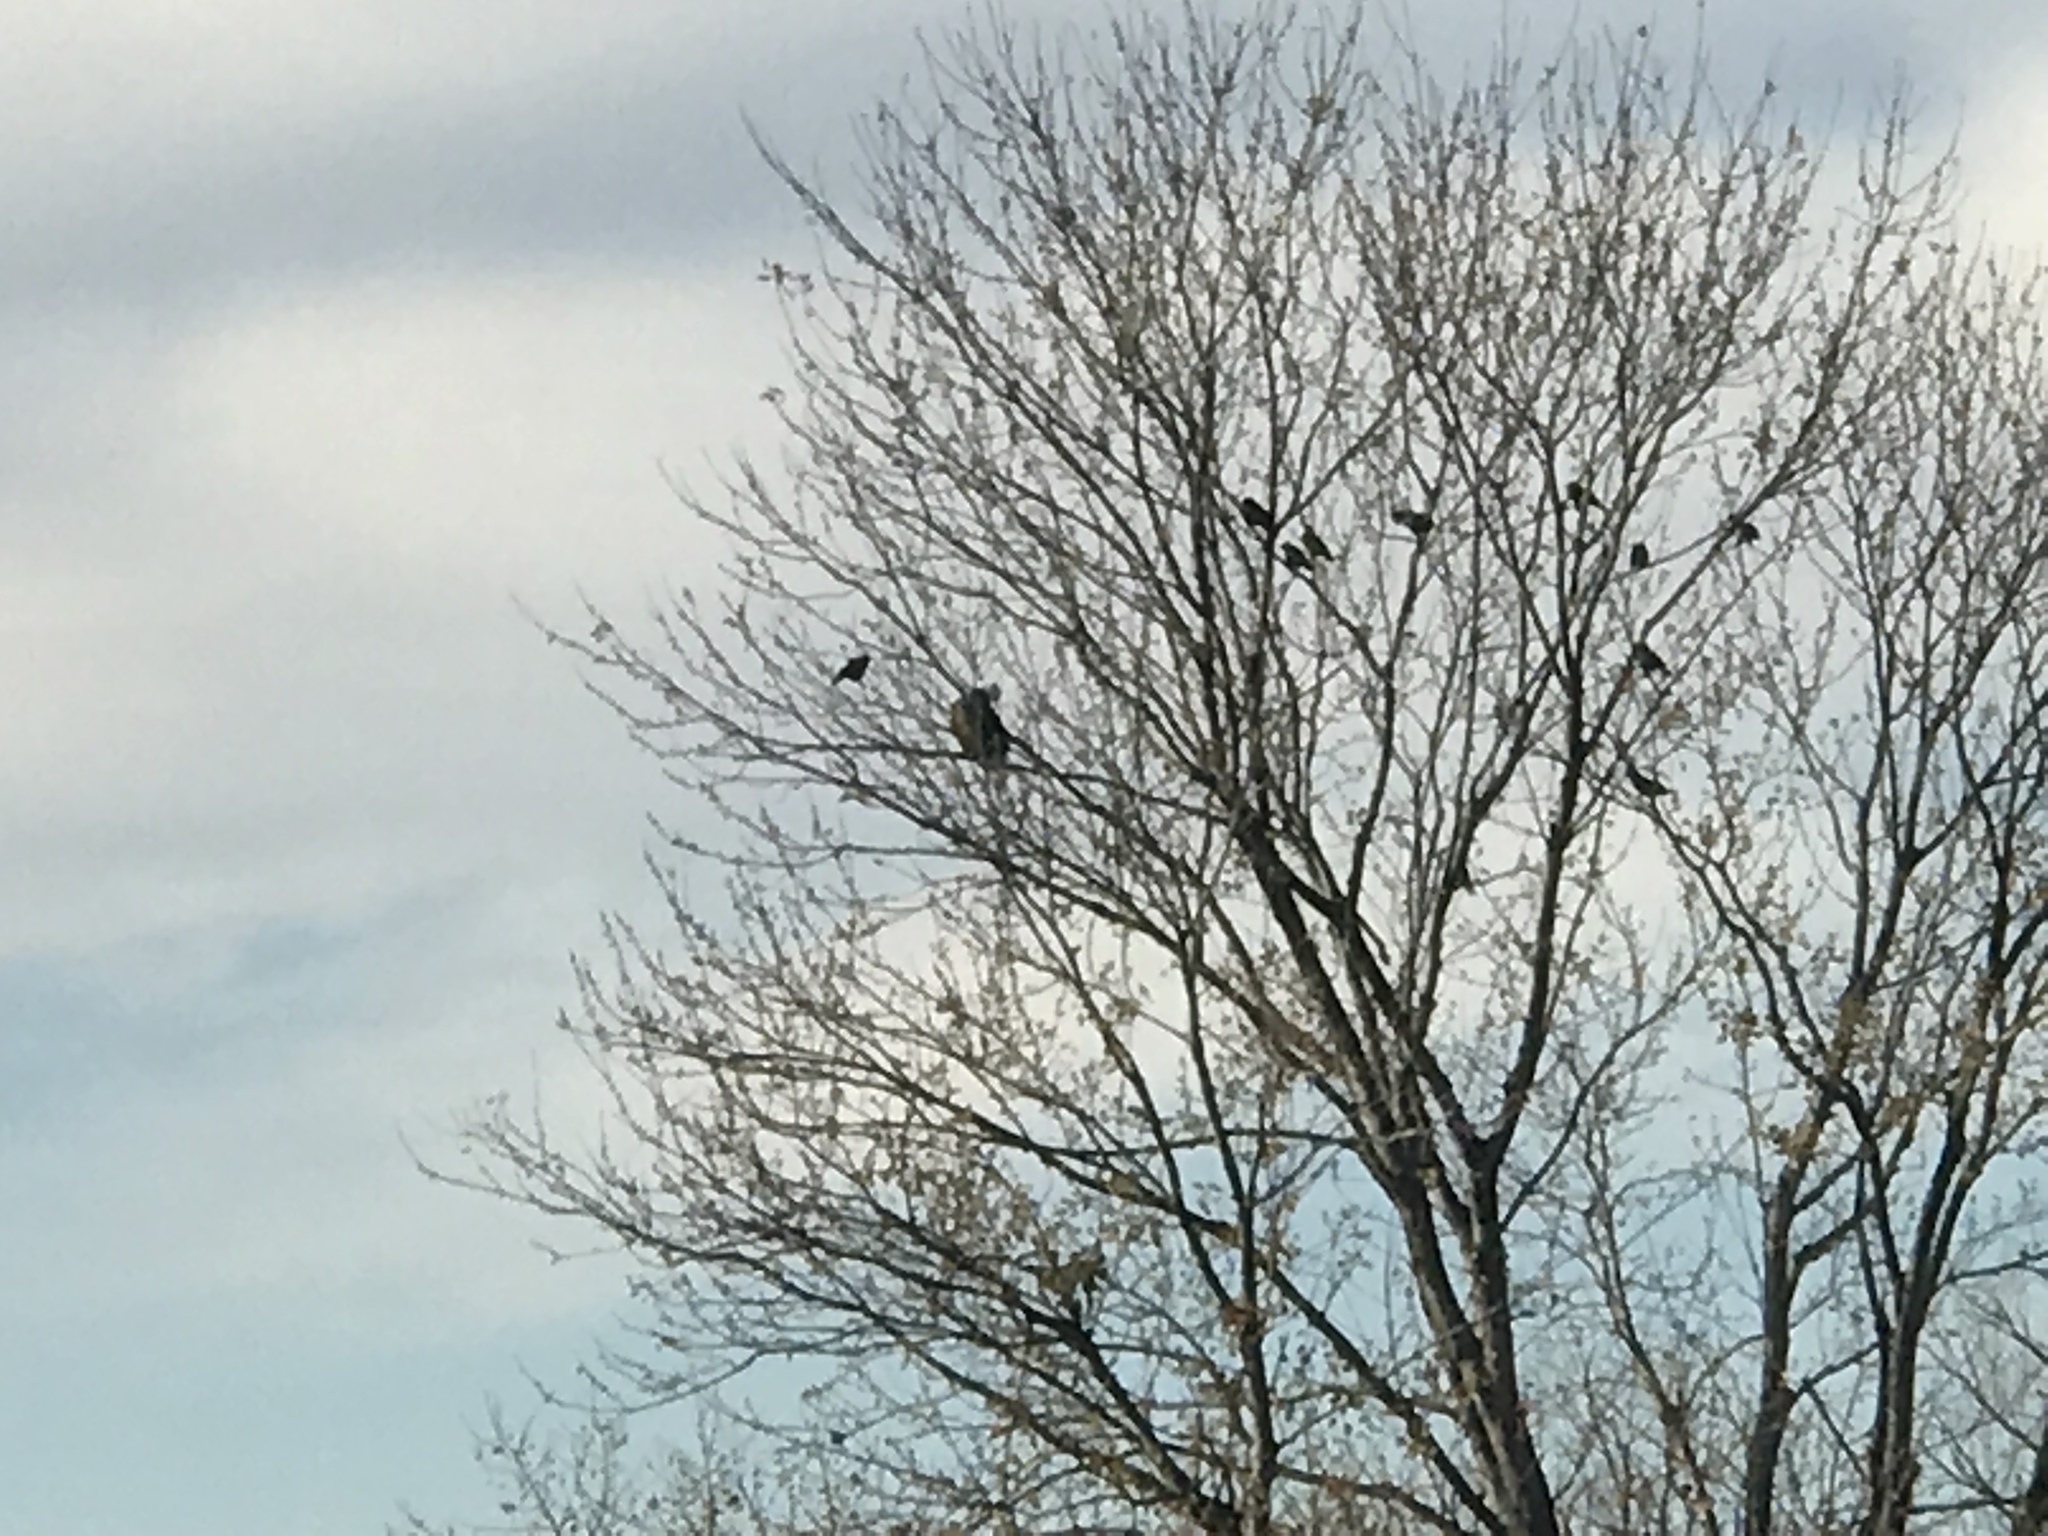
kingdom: Animalia
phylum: Chordata
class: Aves
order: Accipitriformes
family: Accipitridae
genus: Haliaeetus
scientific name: Haliaeetus leucocephalus
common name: Bald eagle
